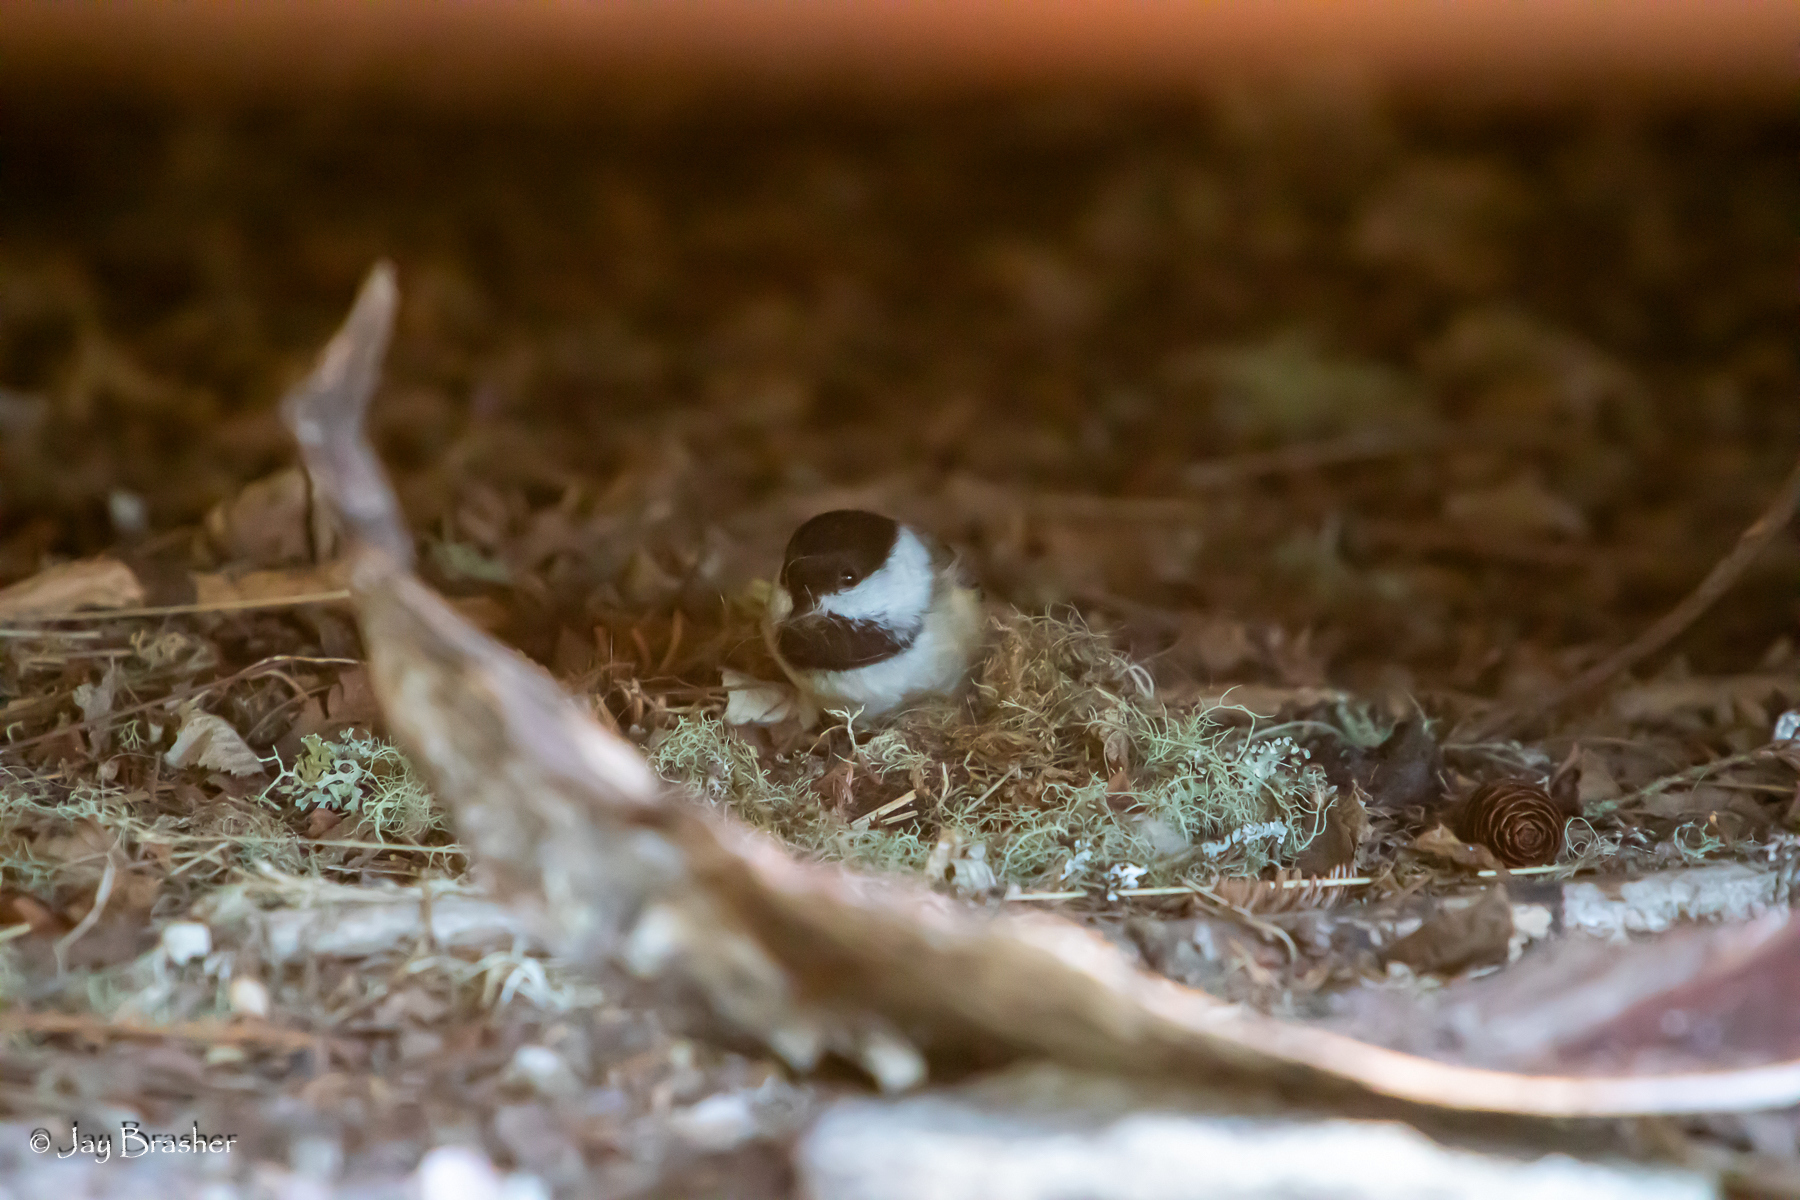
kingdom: Animalia
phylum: Chordata
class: Aves
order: Passeriformes
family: Paridae
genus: Poecile
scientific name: Poecile atricapillus
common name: Black-capped chickadee
